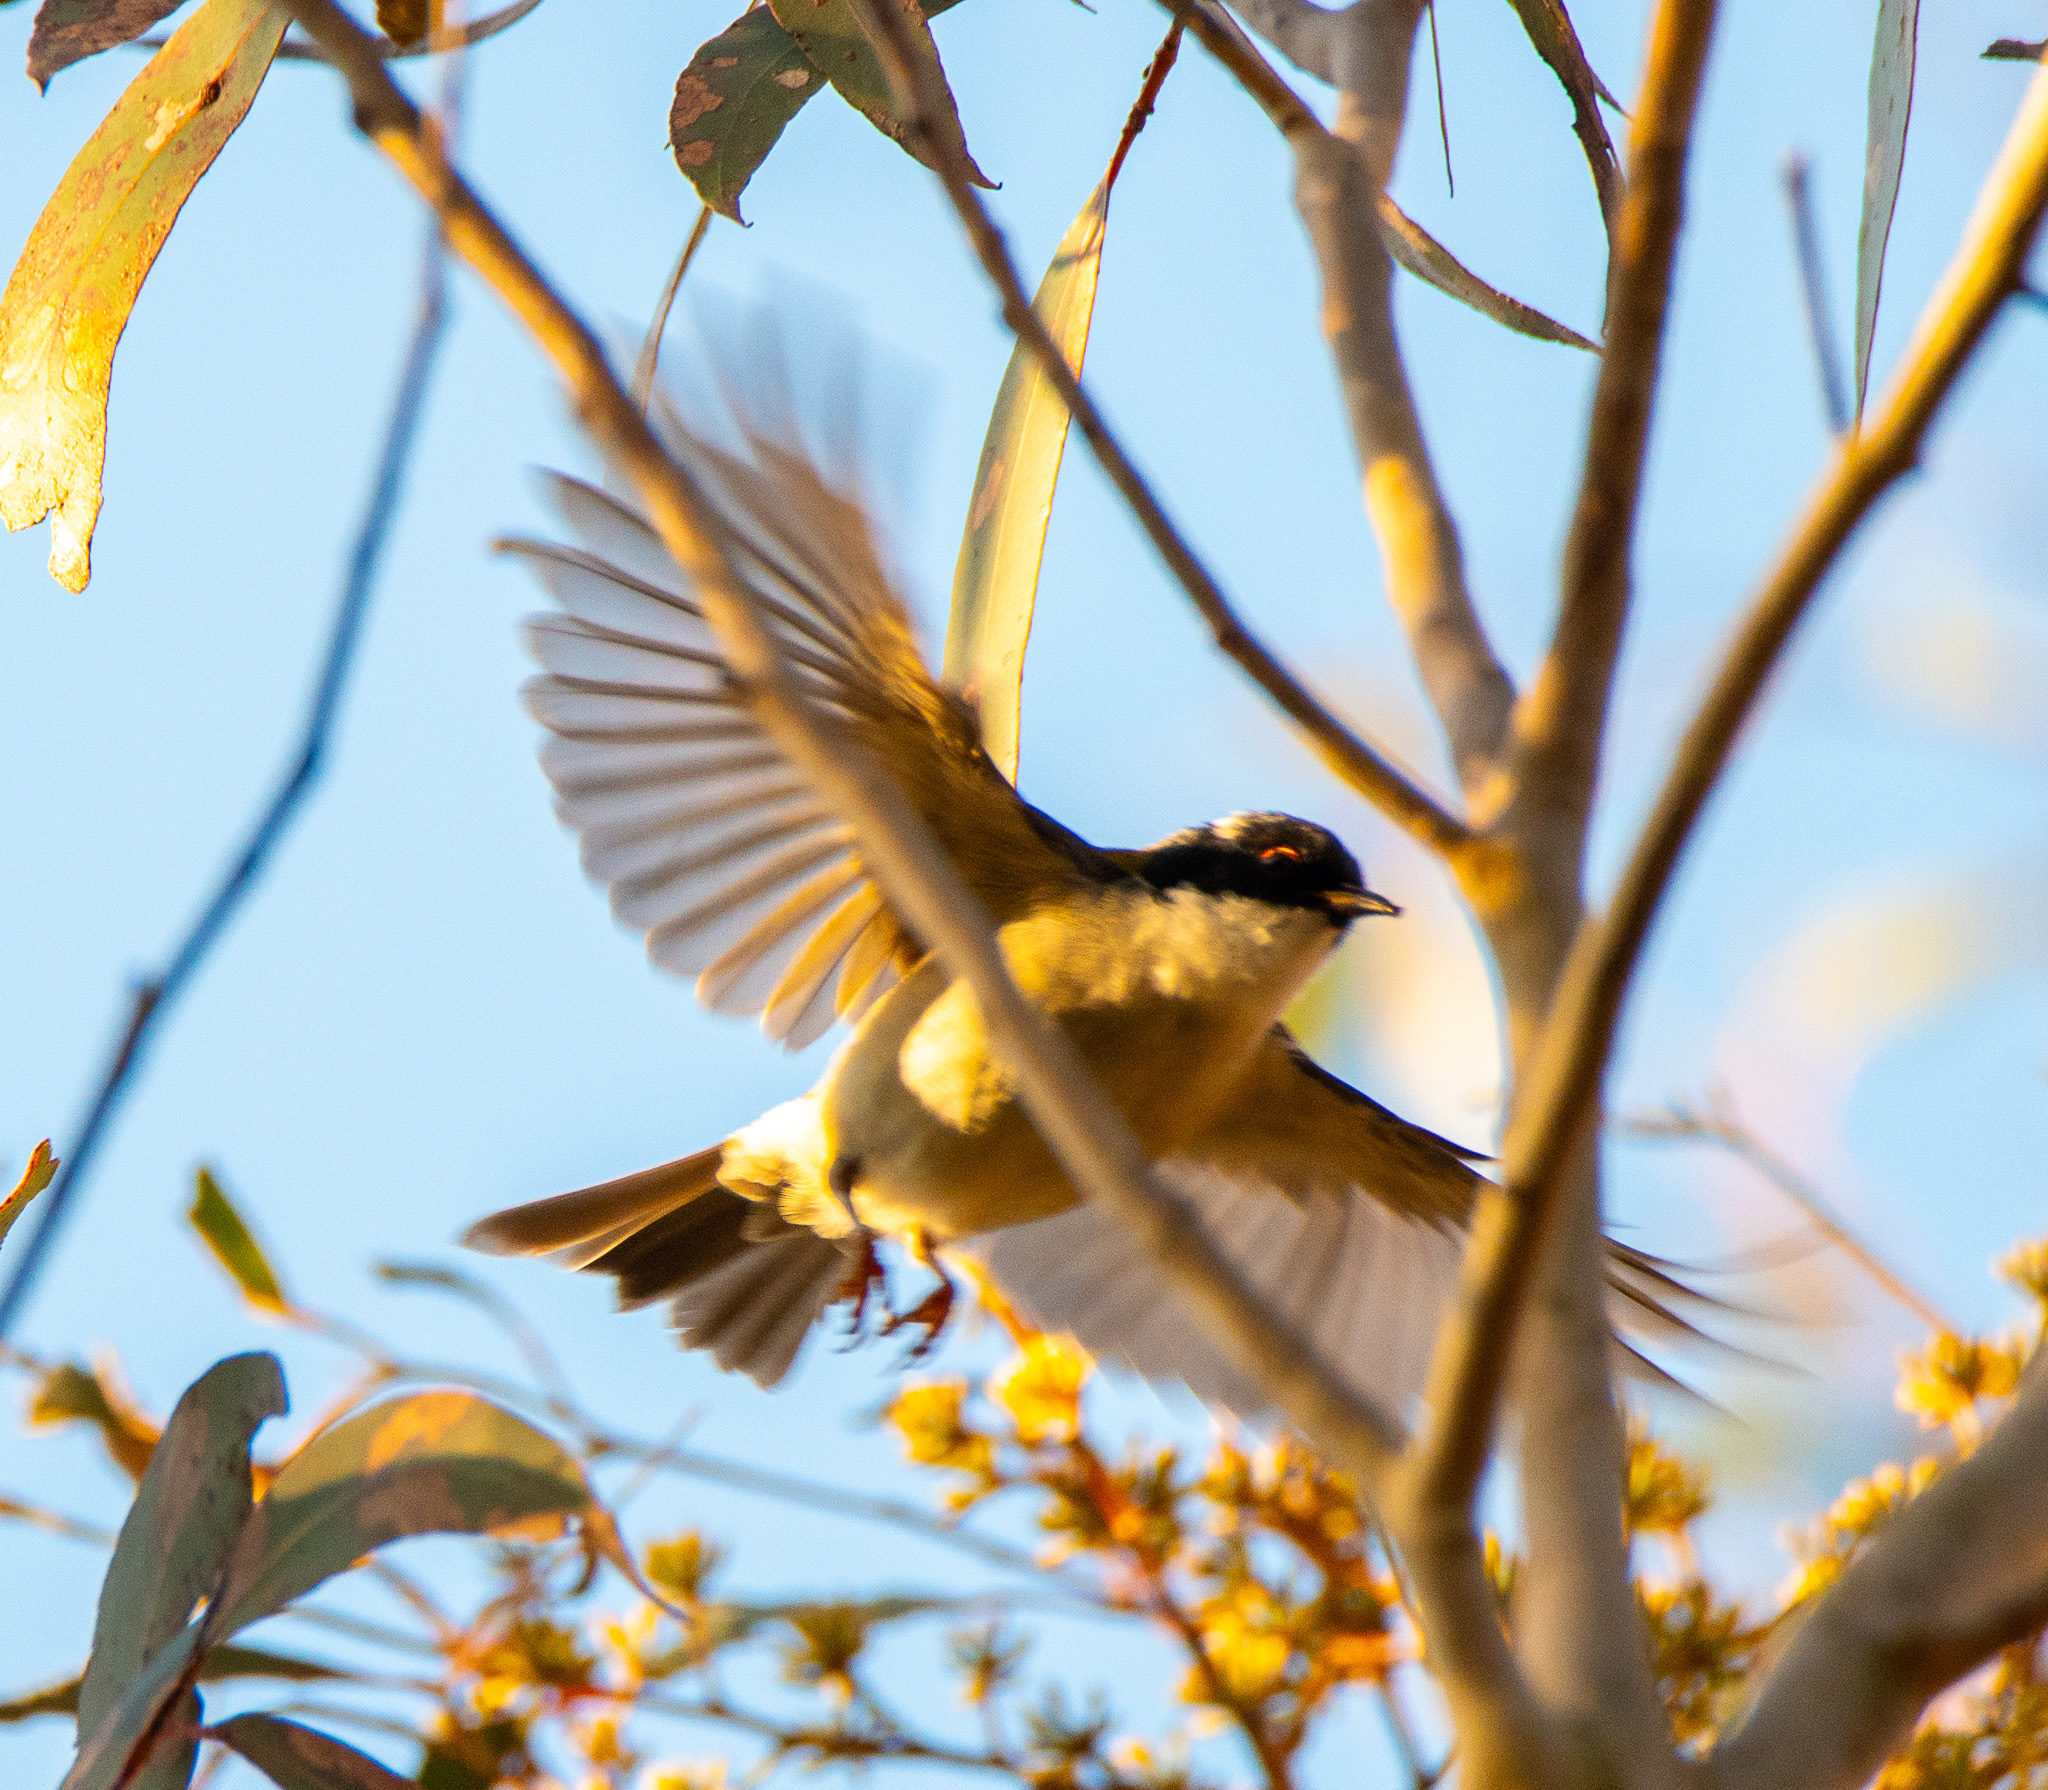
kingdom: Animalia
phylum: Chordata
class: Aves
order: Passeriformes
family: Meliphagidae
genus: Melithreptus
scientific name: Melithreptus lunatus
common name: White-naped honeyeater
